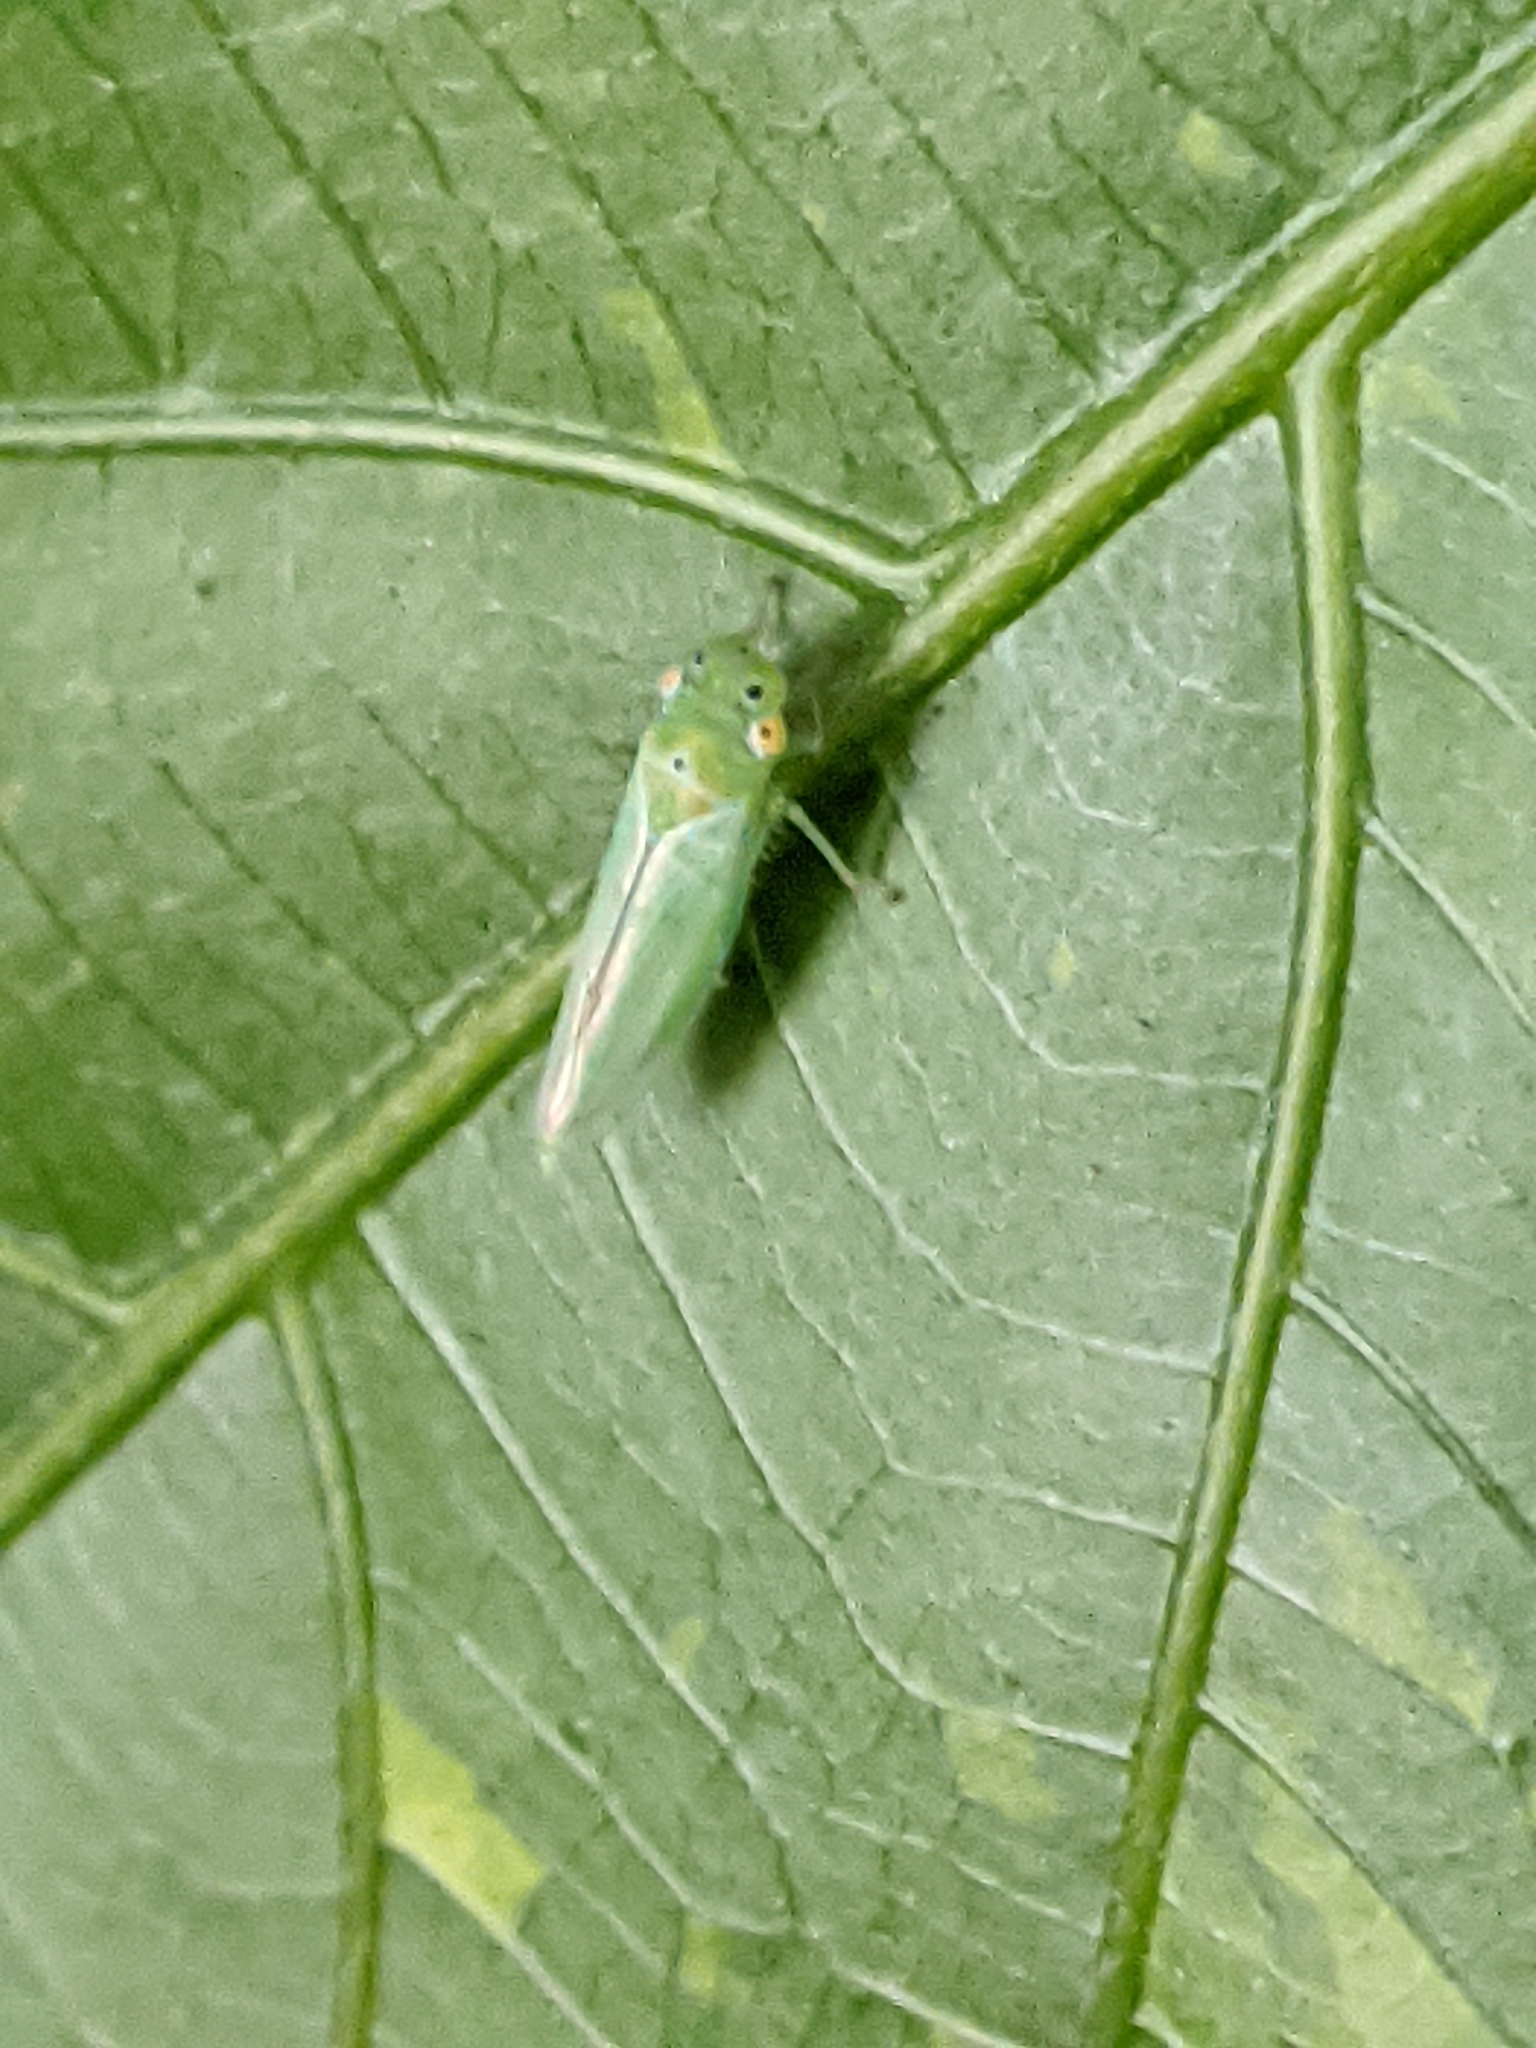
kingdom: Animalia
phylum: Arthropoda
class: Insecta
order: Hemiptera
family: Cicadellidae
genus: Kolla
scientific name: Kolla ceylonica
